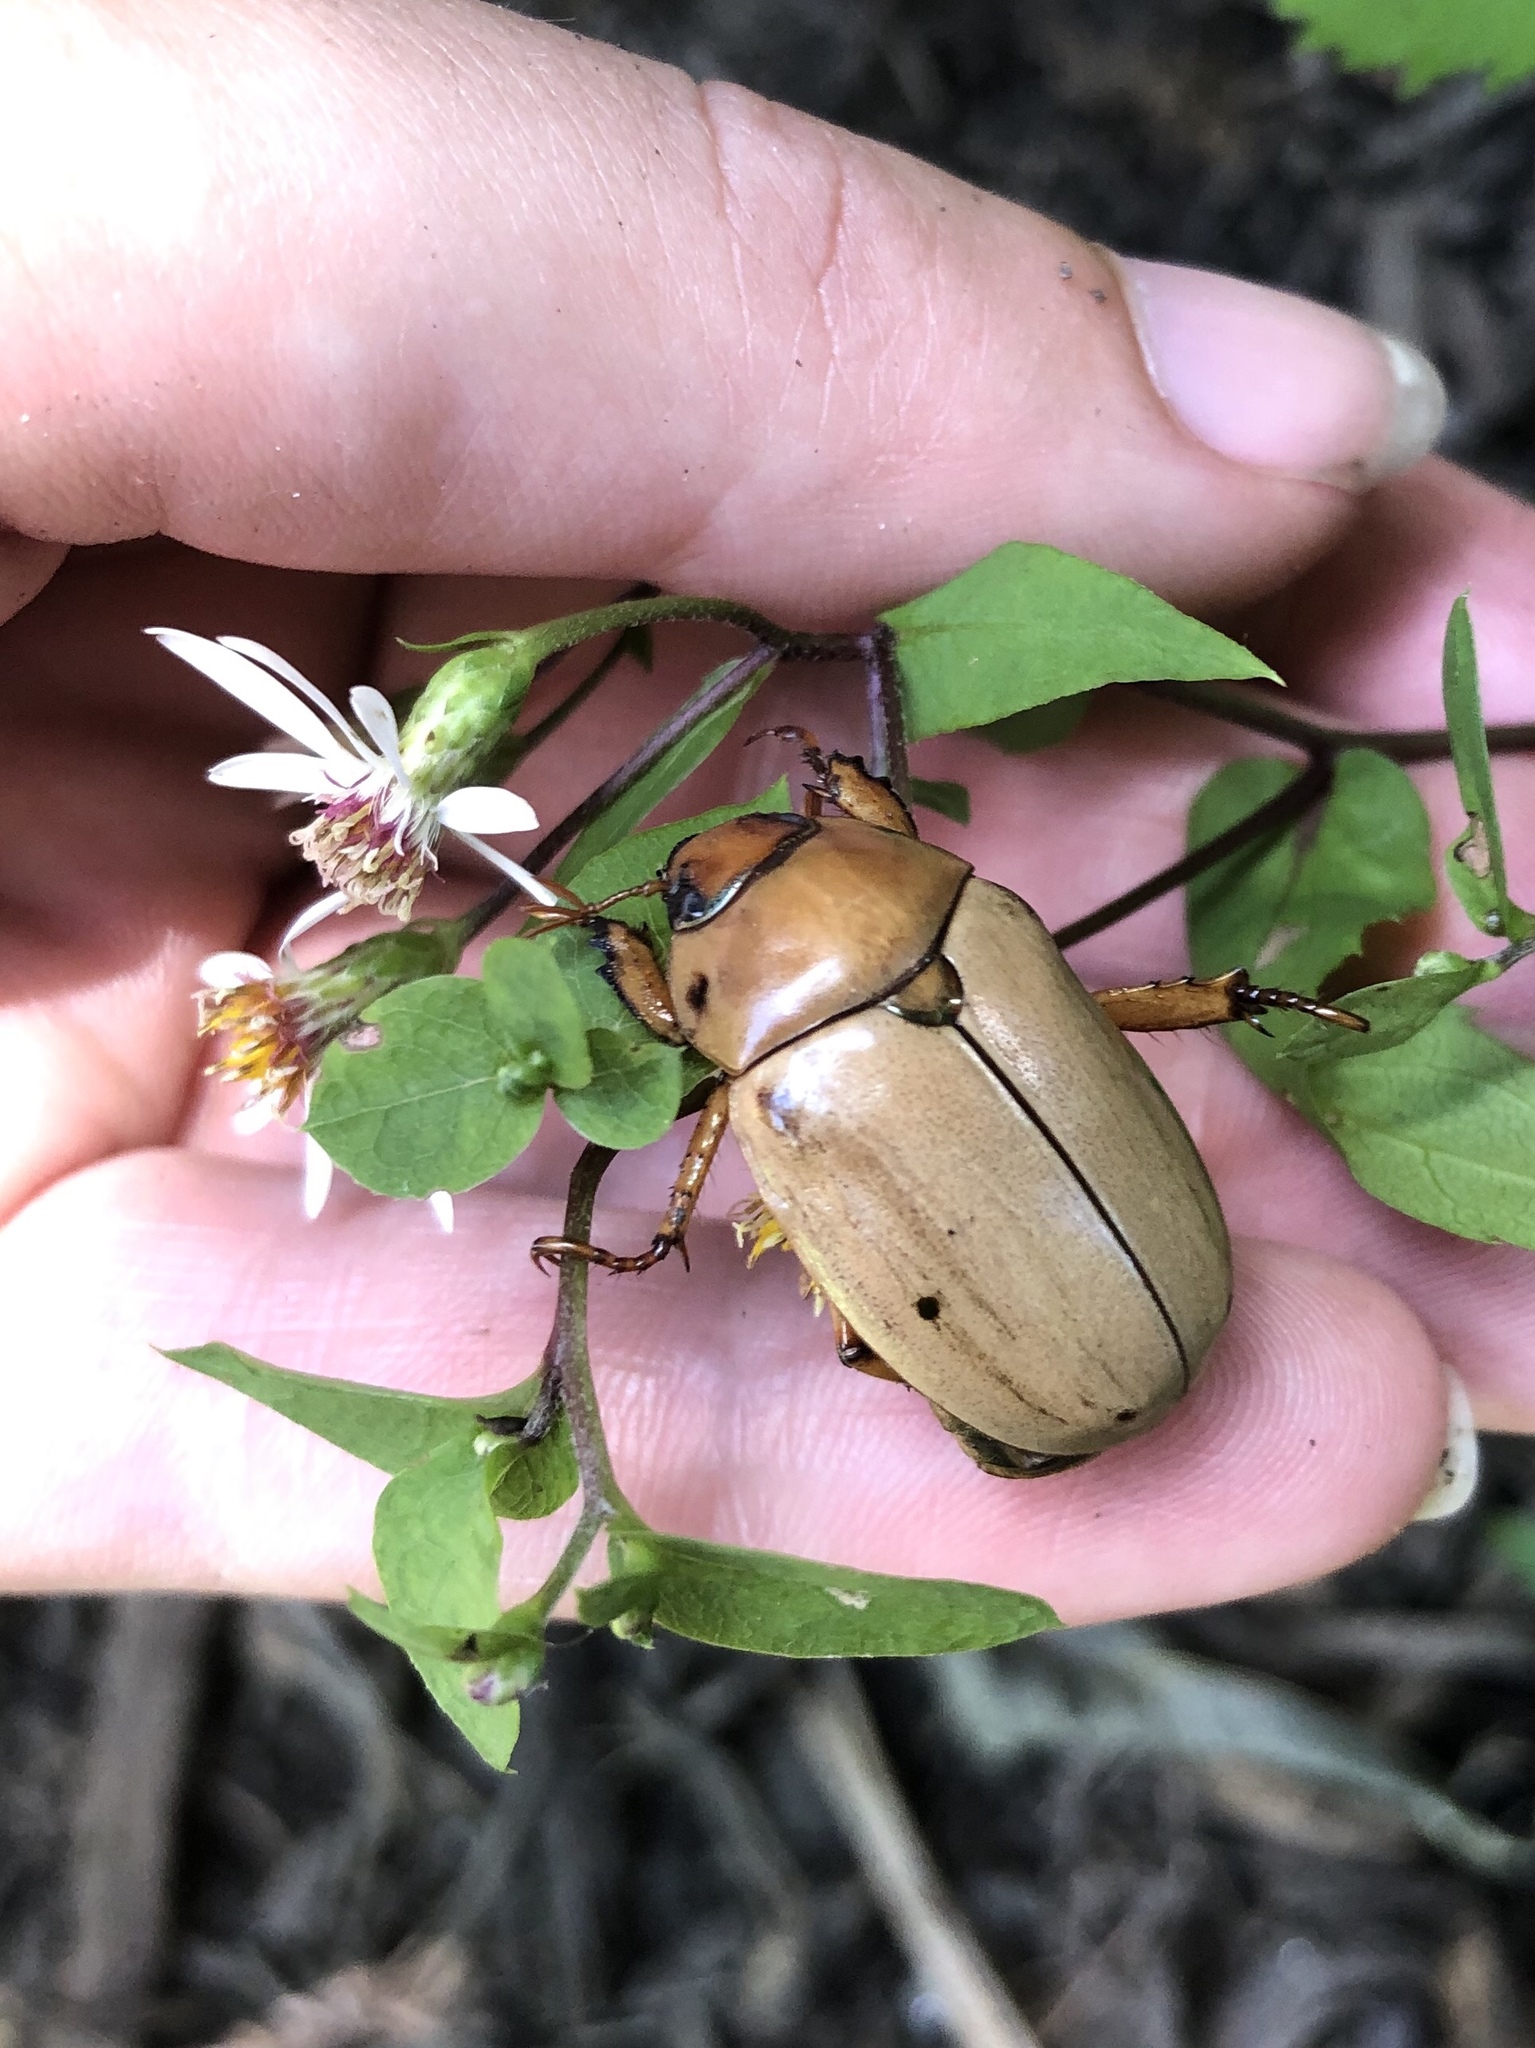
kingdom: Animalia
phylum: Arthropoda
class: Insecta
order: Coleoptera
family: Scarabaeidae
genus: Pelidnota
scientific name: Pelidnota punctata
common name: Grapevine beetle
